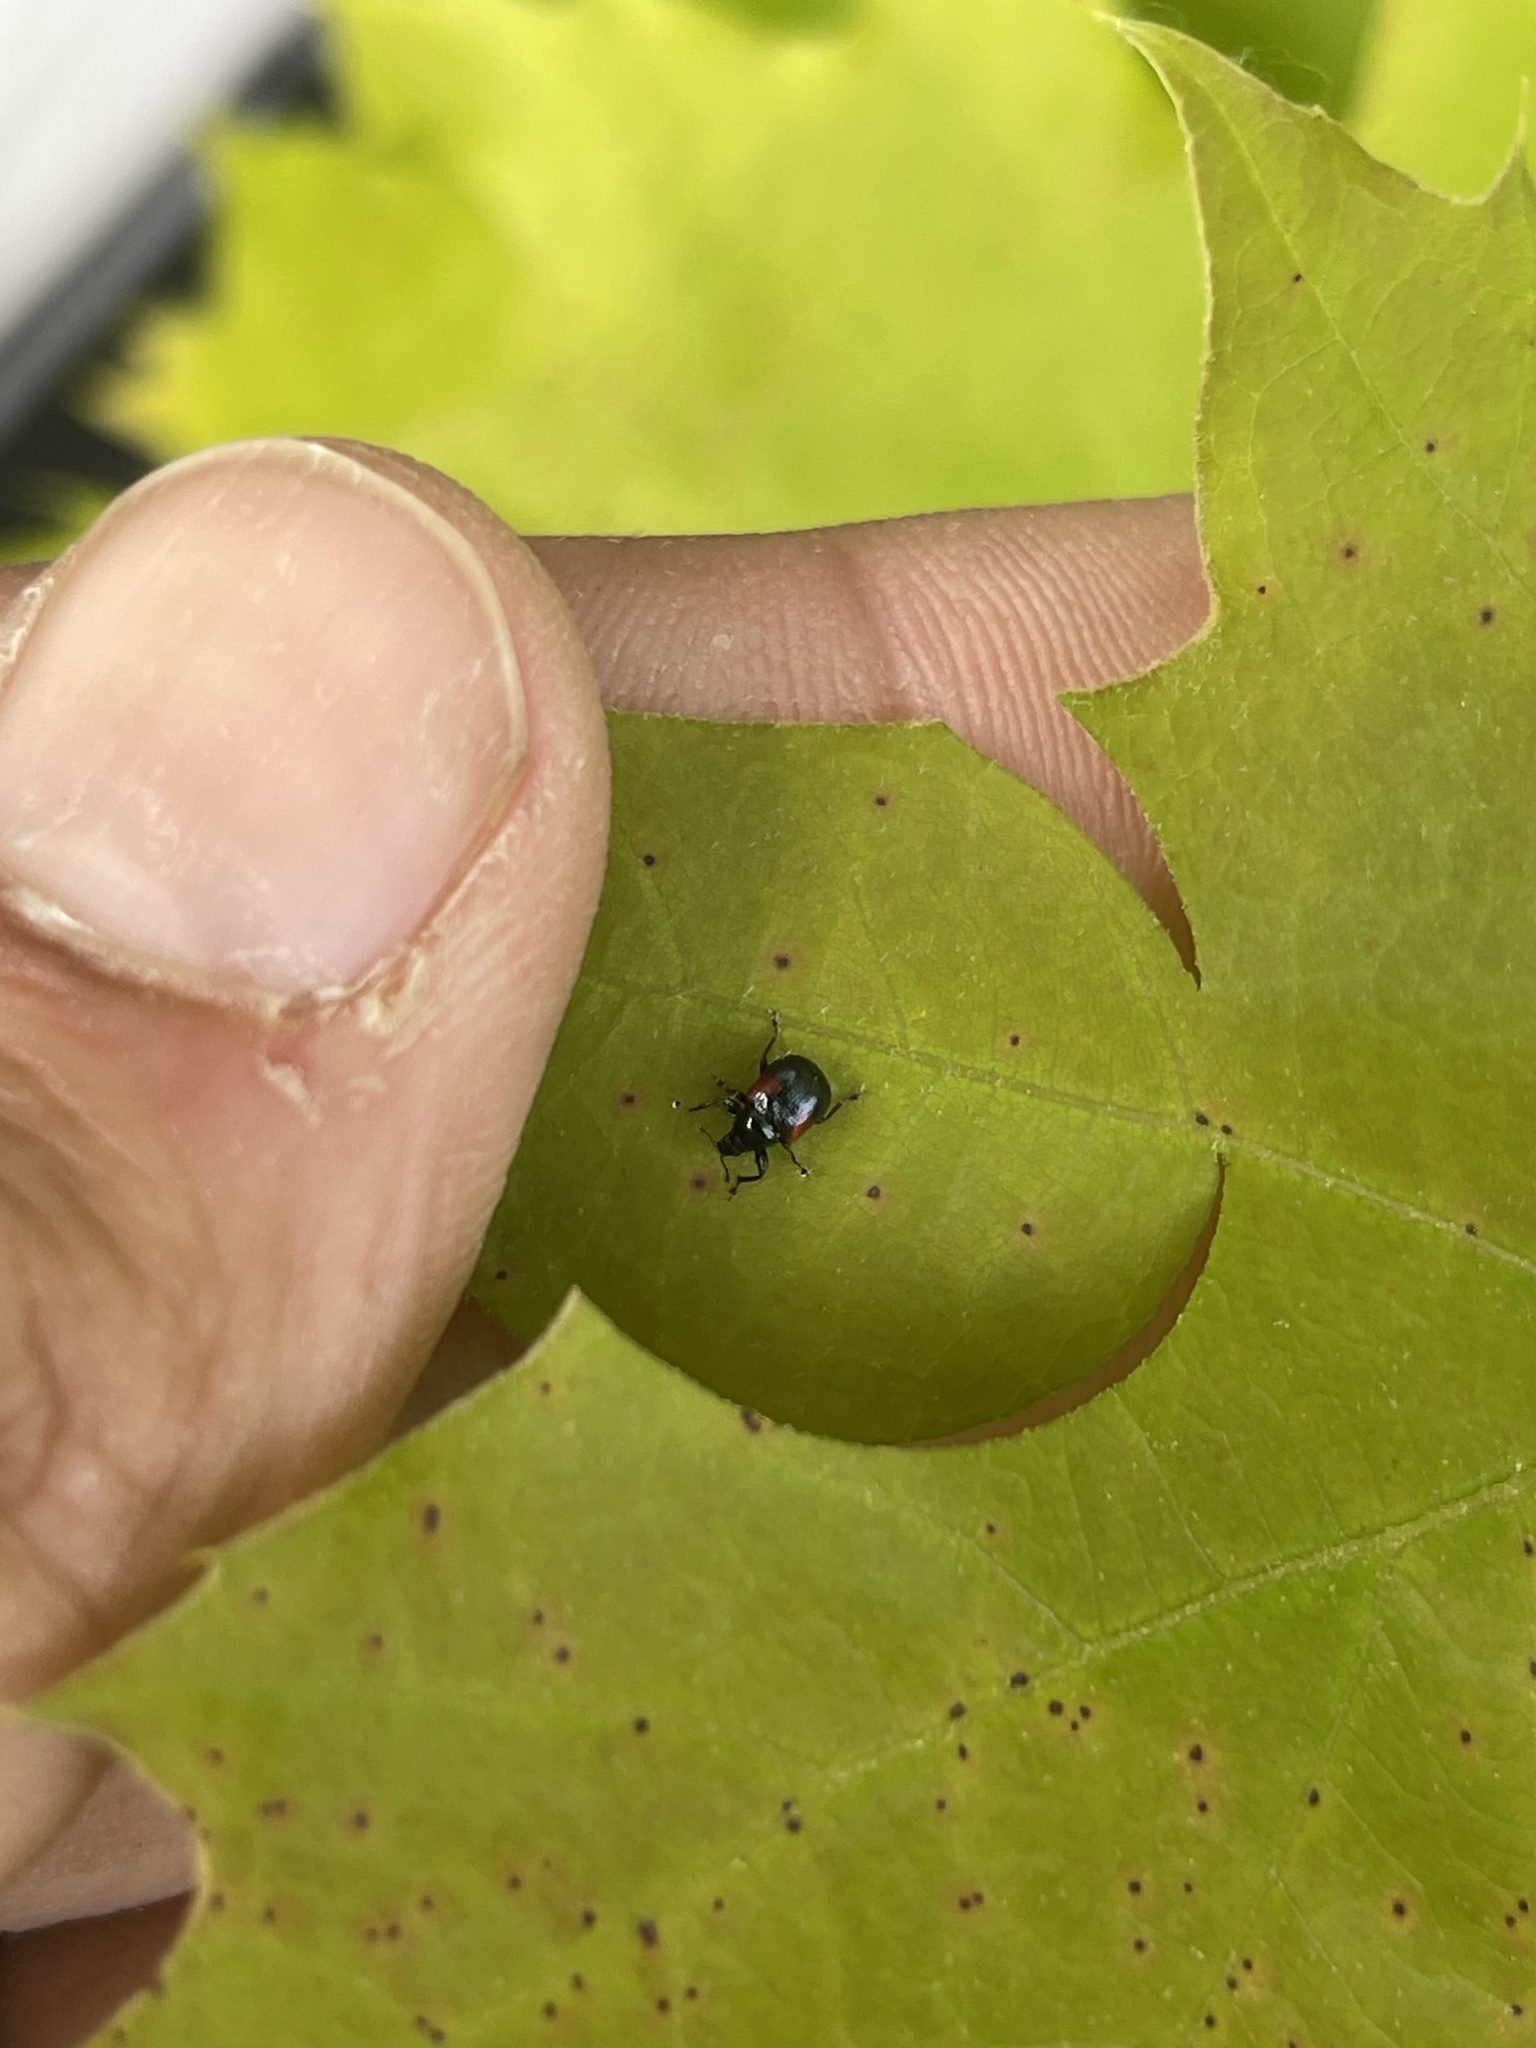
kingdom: Animalia
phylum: Arthropoda
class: Insecta
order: Coleoptera
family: Attelabidae
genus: Attelabus
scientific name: Attelabus bipustulatus
